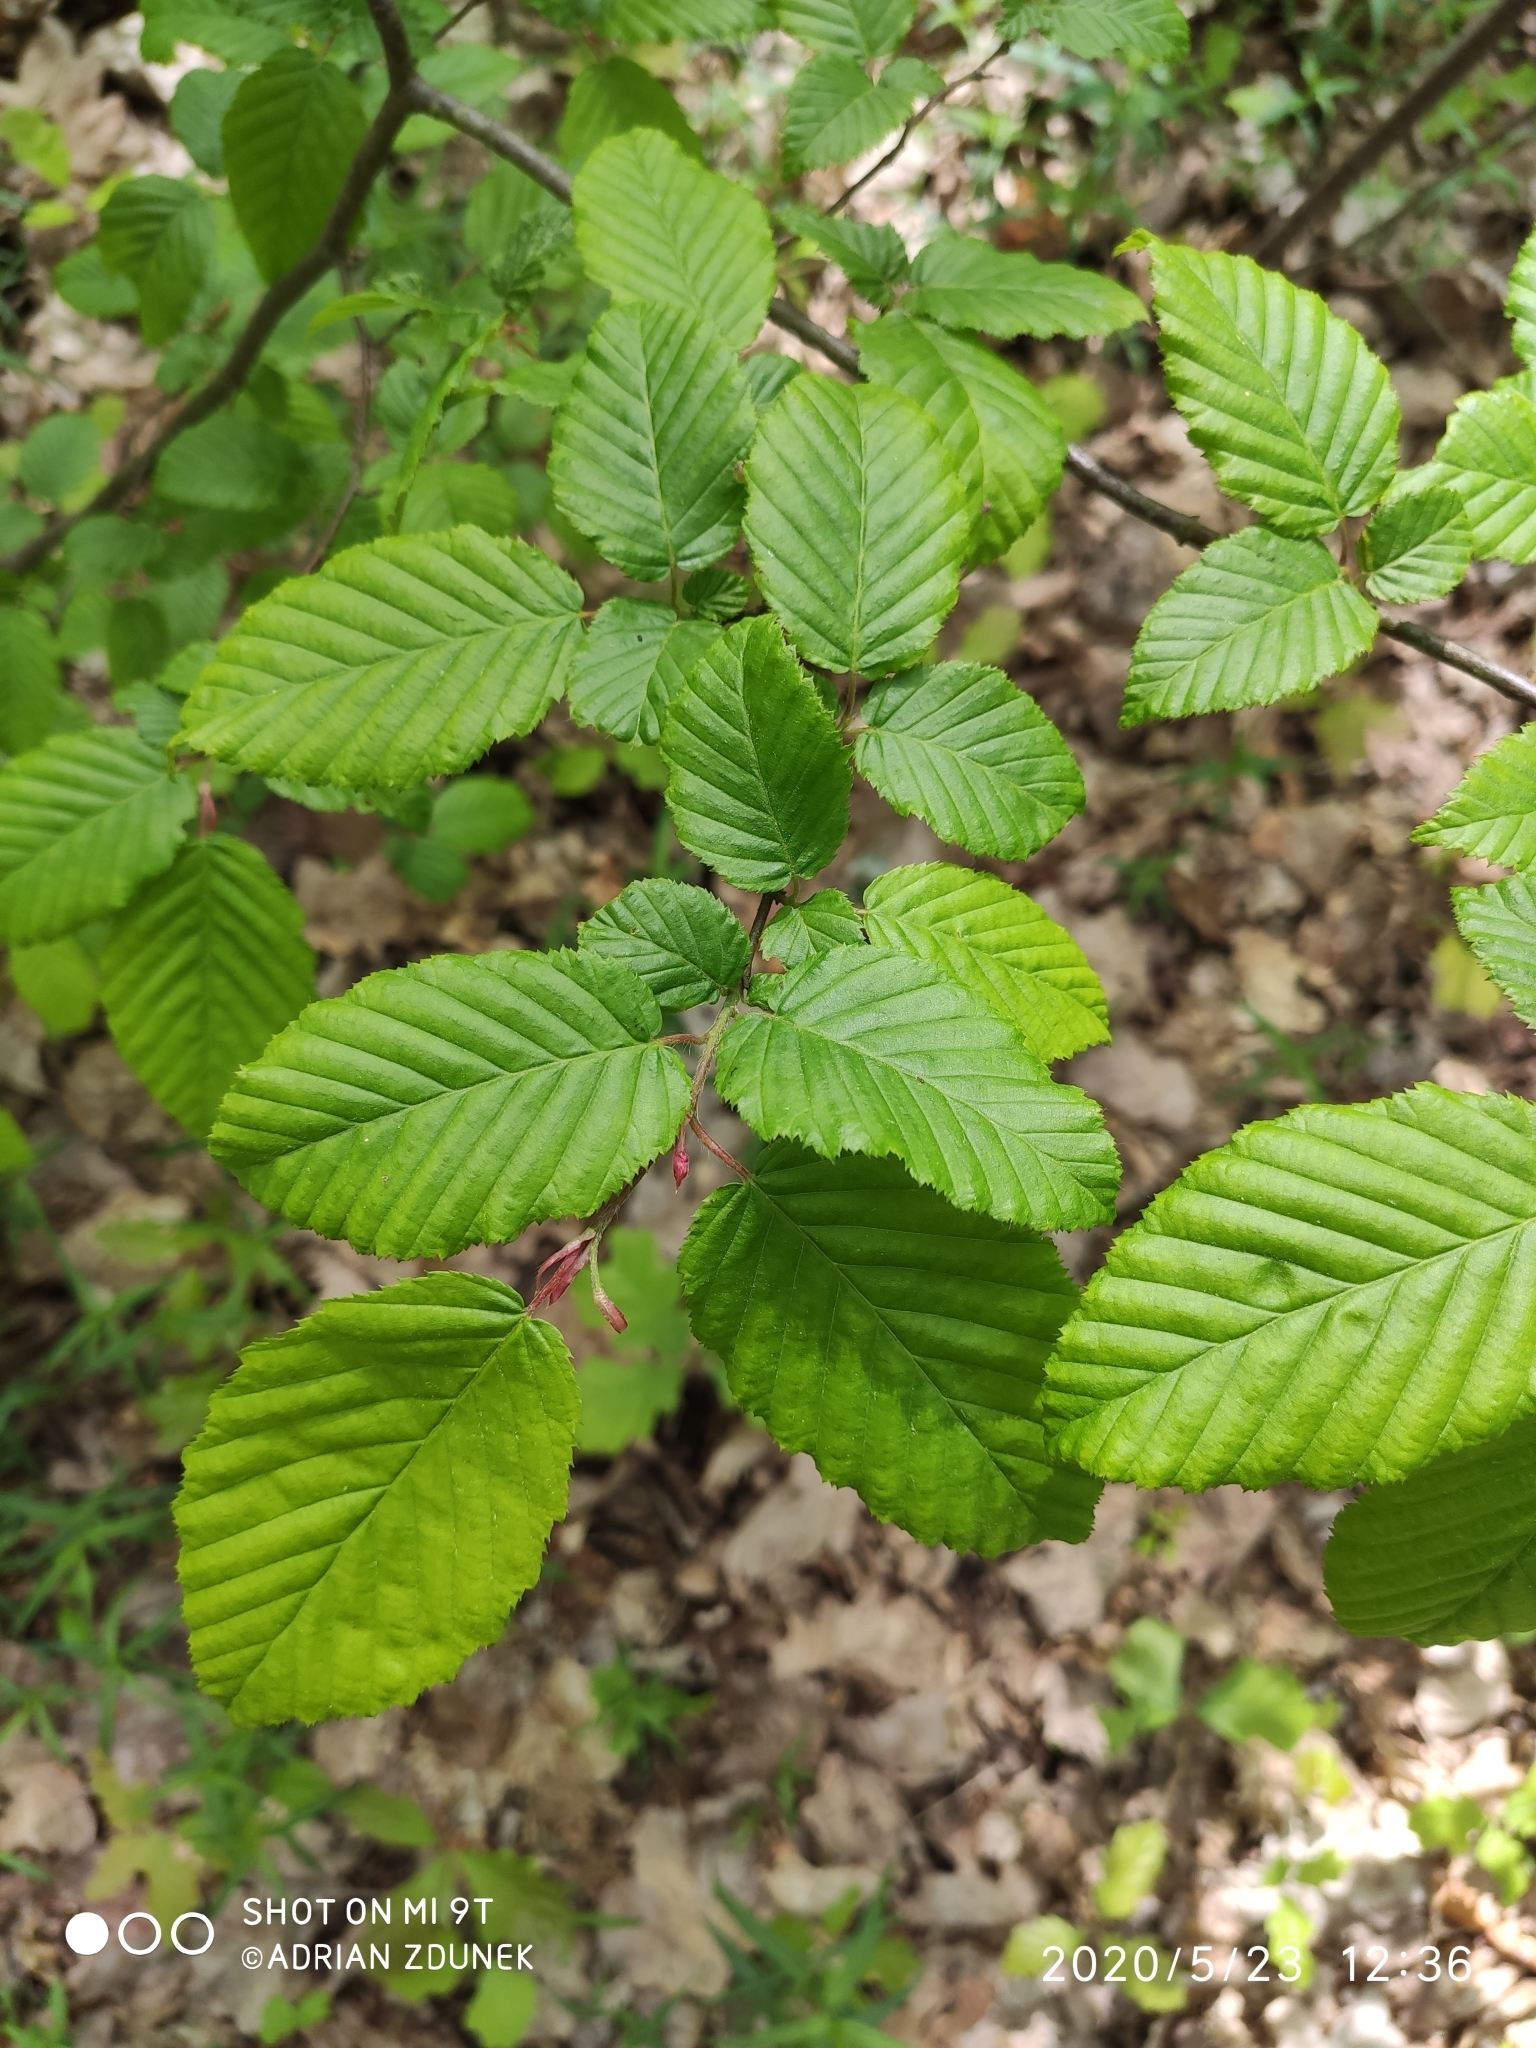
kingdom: Plantae
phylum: Tracheophyta
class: Magnoliopsida
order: Fagales
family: Betulaceae
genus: Carpinus
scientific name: Carpinus betulus
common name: Hornbeam
